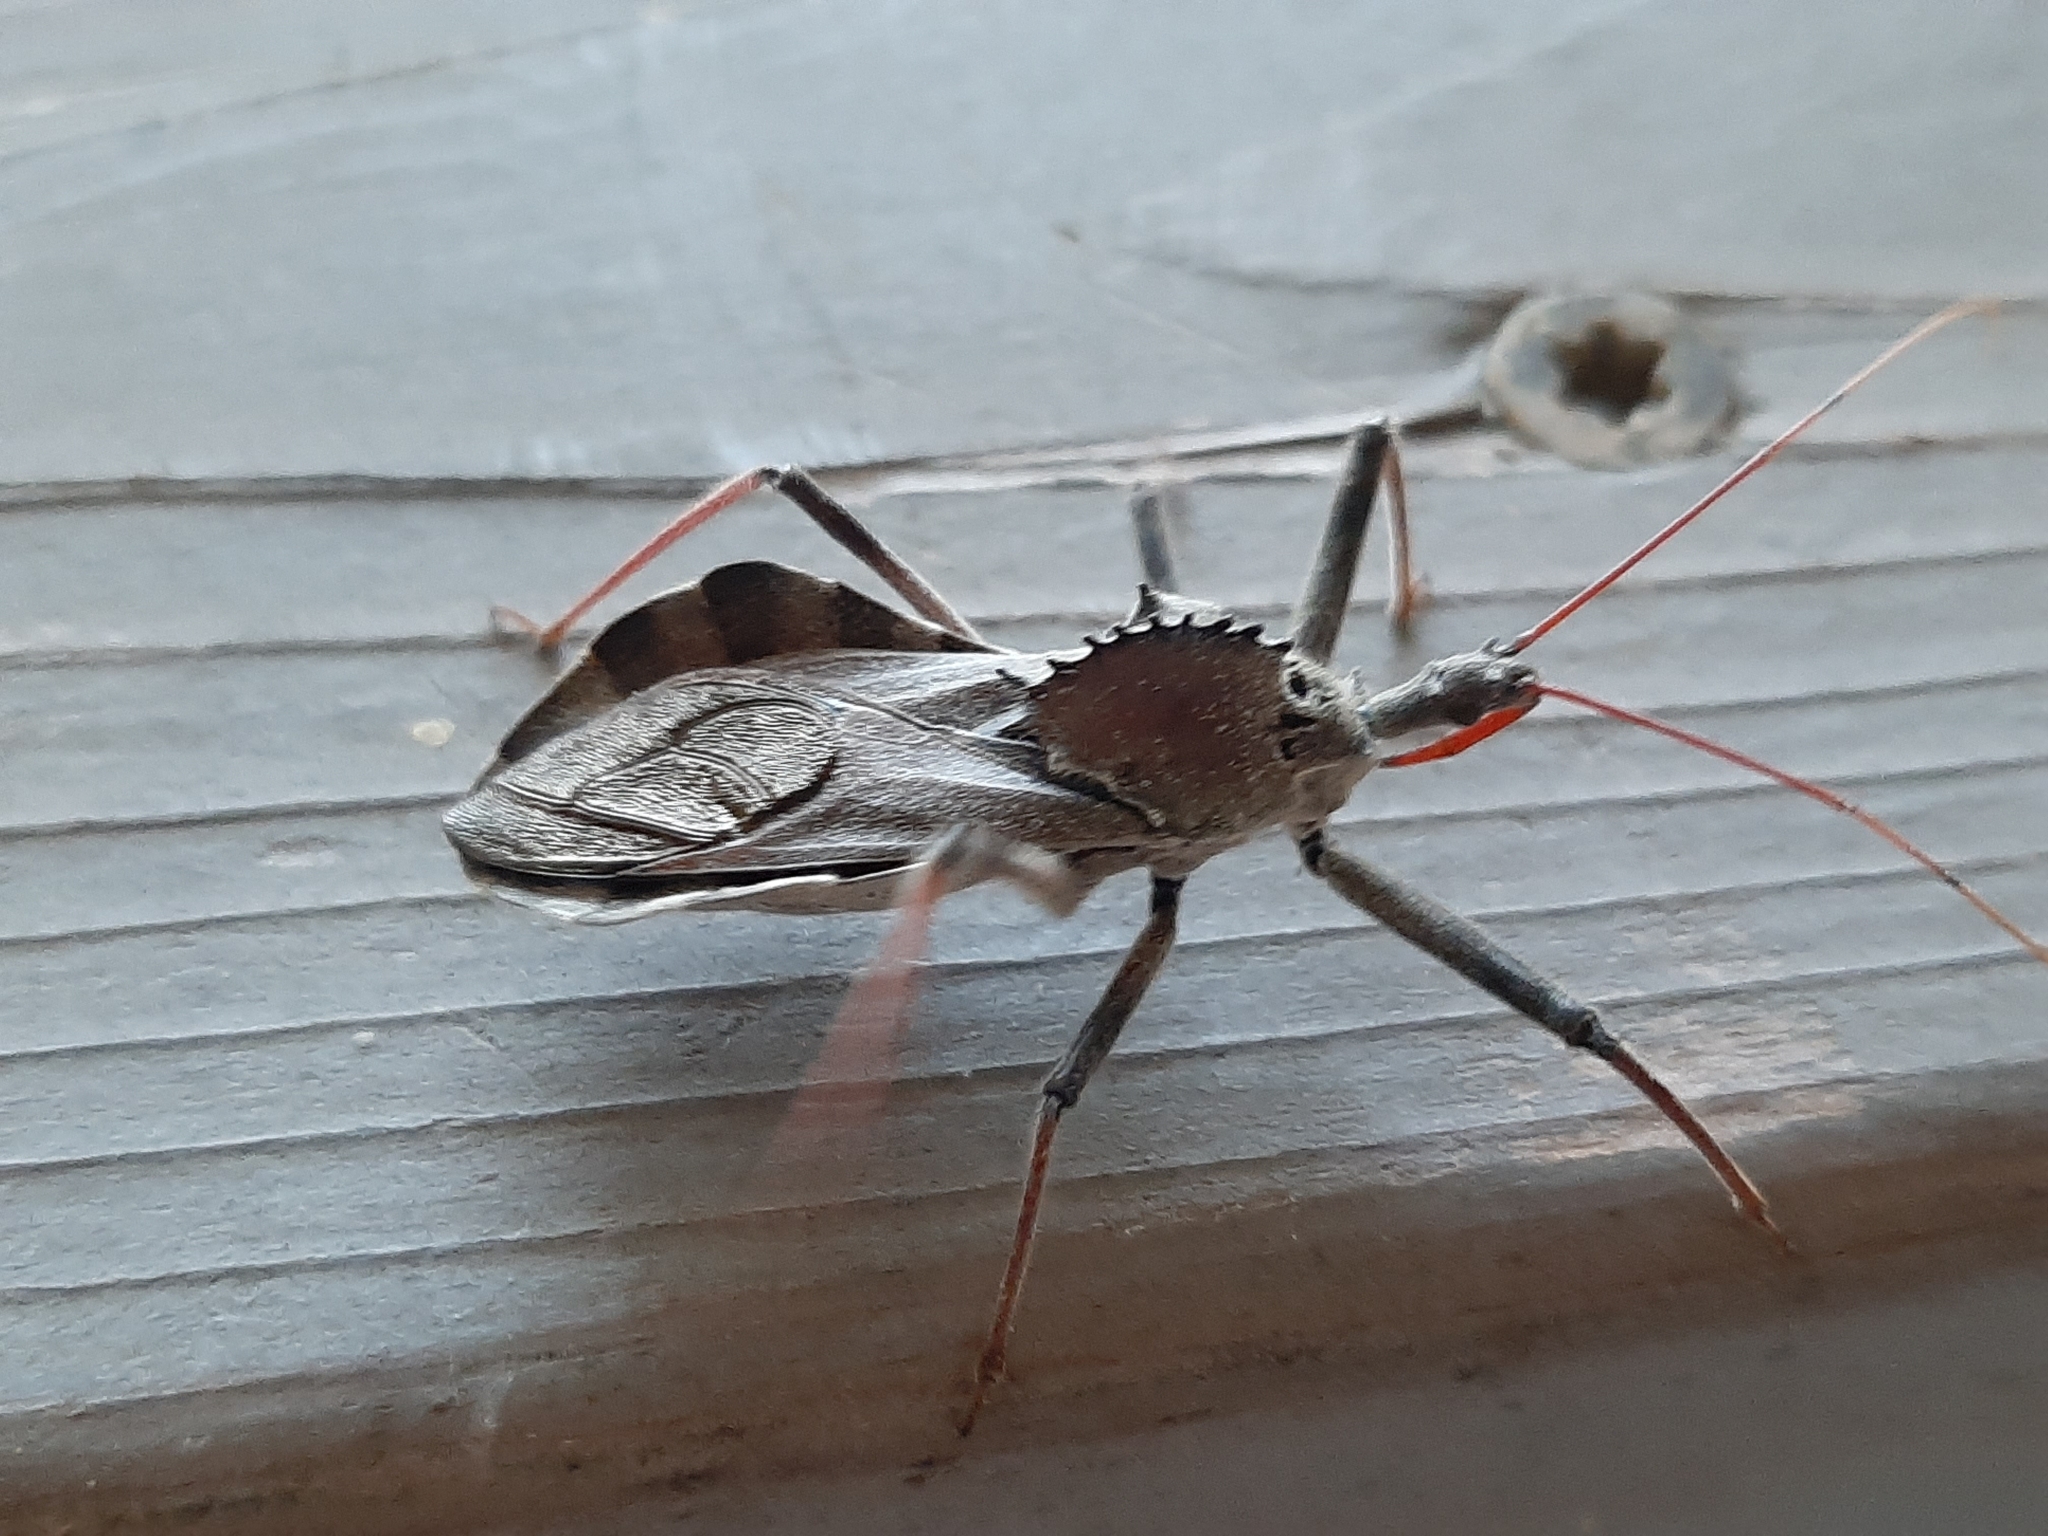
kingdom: Animalia
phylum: Arthropoda
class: Insecta
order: Hemiptera
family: Reduviidae
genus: Arilus
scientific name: Arilus cristatus
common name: North american wheel bug
